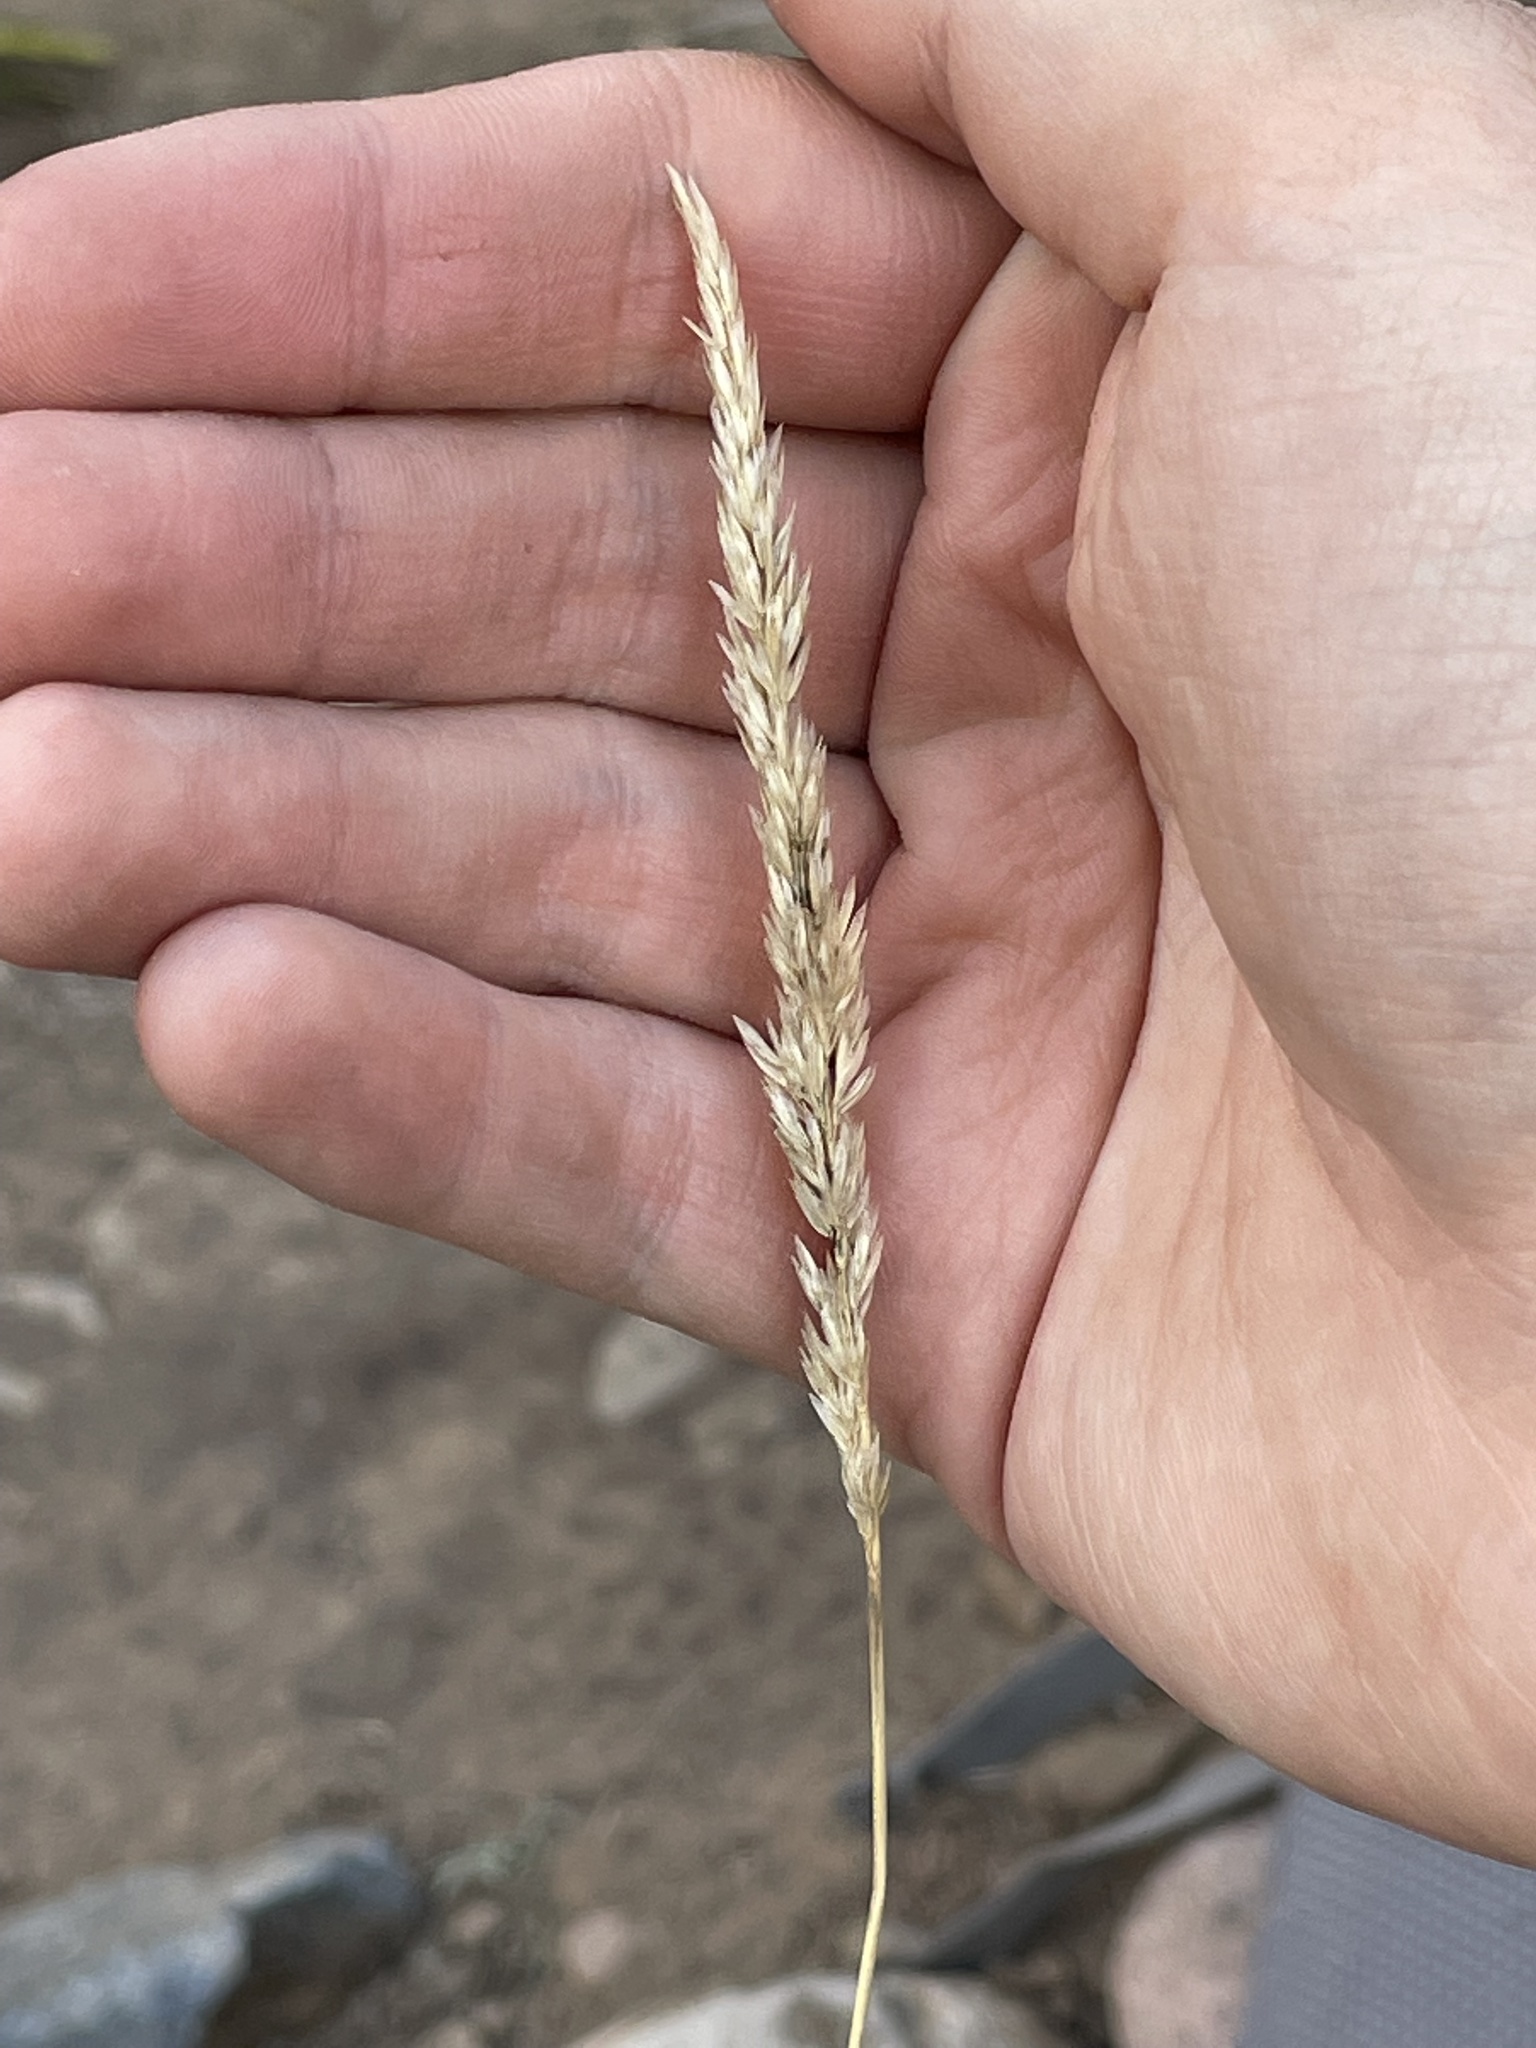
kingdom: Plantae
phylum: Tracheophyta
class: Liliopsida
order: Poales
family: Poaceae
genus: Koeleria
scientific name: Koeleria macrantha
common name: Crested hair-grass
